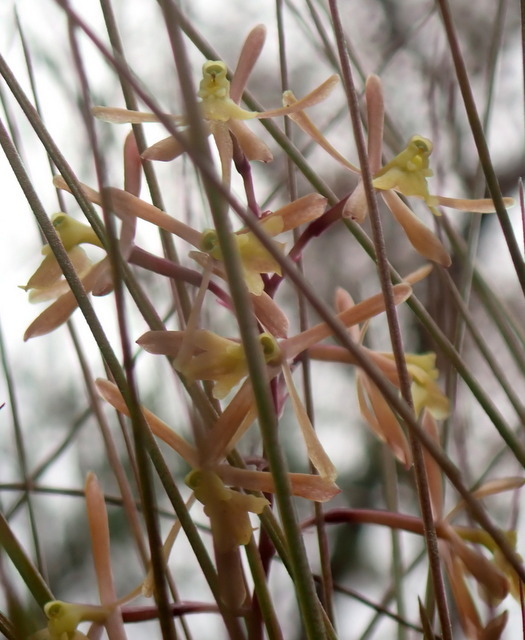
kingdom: Plantae
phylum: Tracheophyta
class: Liliopsida
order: Asparagales
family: Orchidaceae
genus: Epidendrum
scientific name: Epidendrum conopseum
